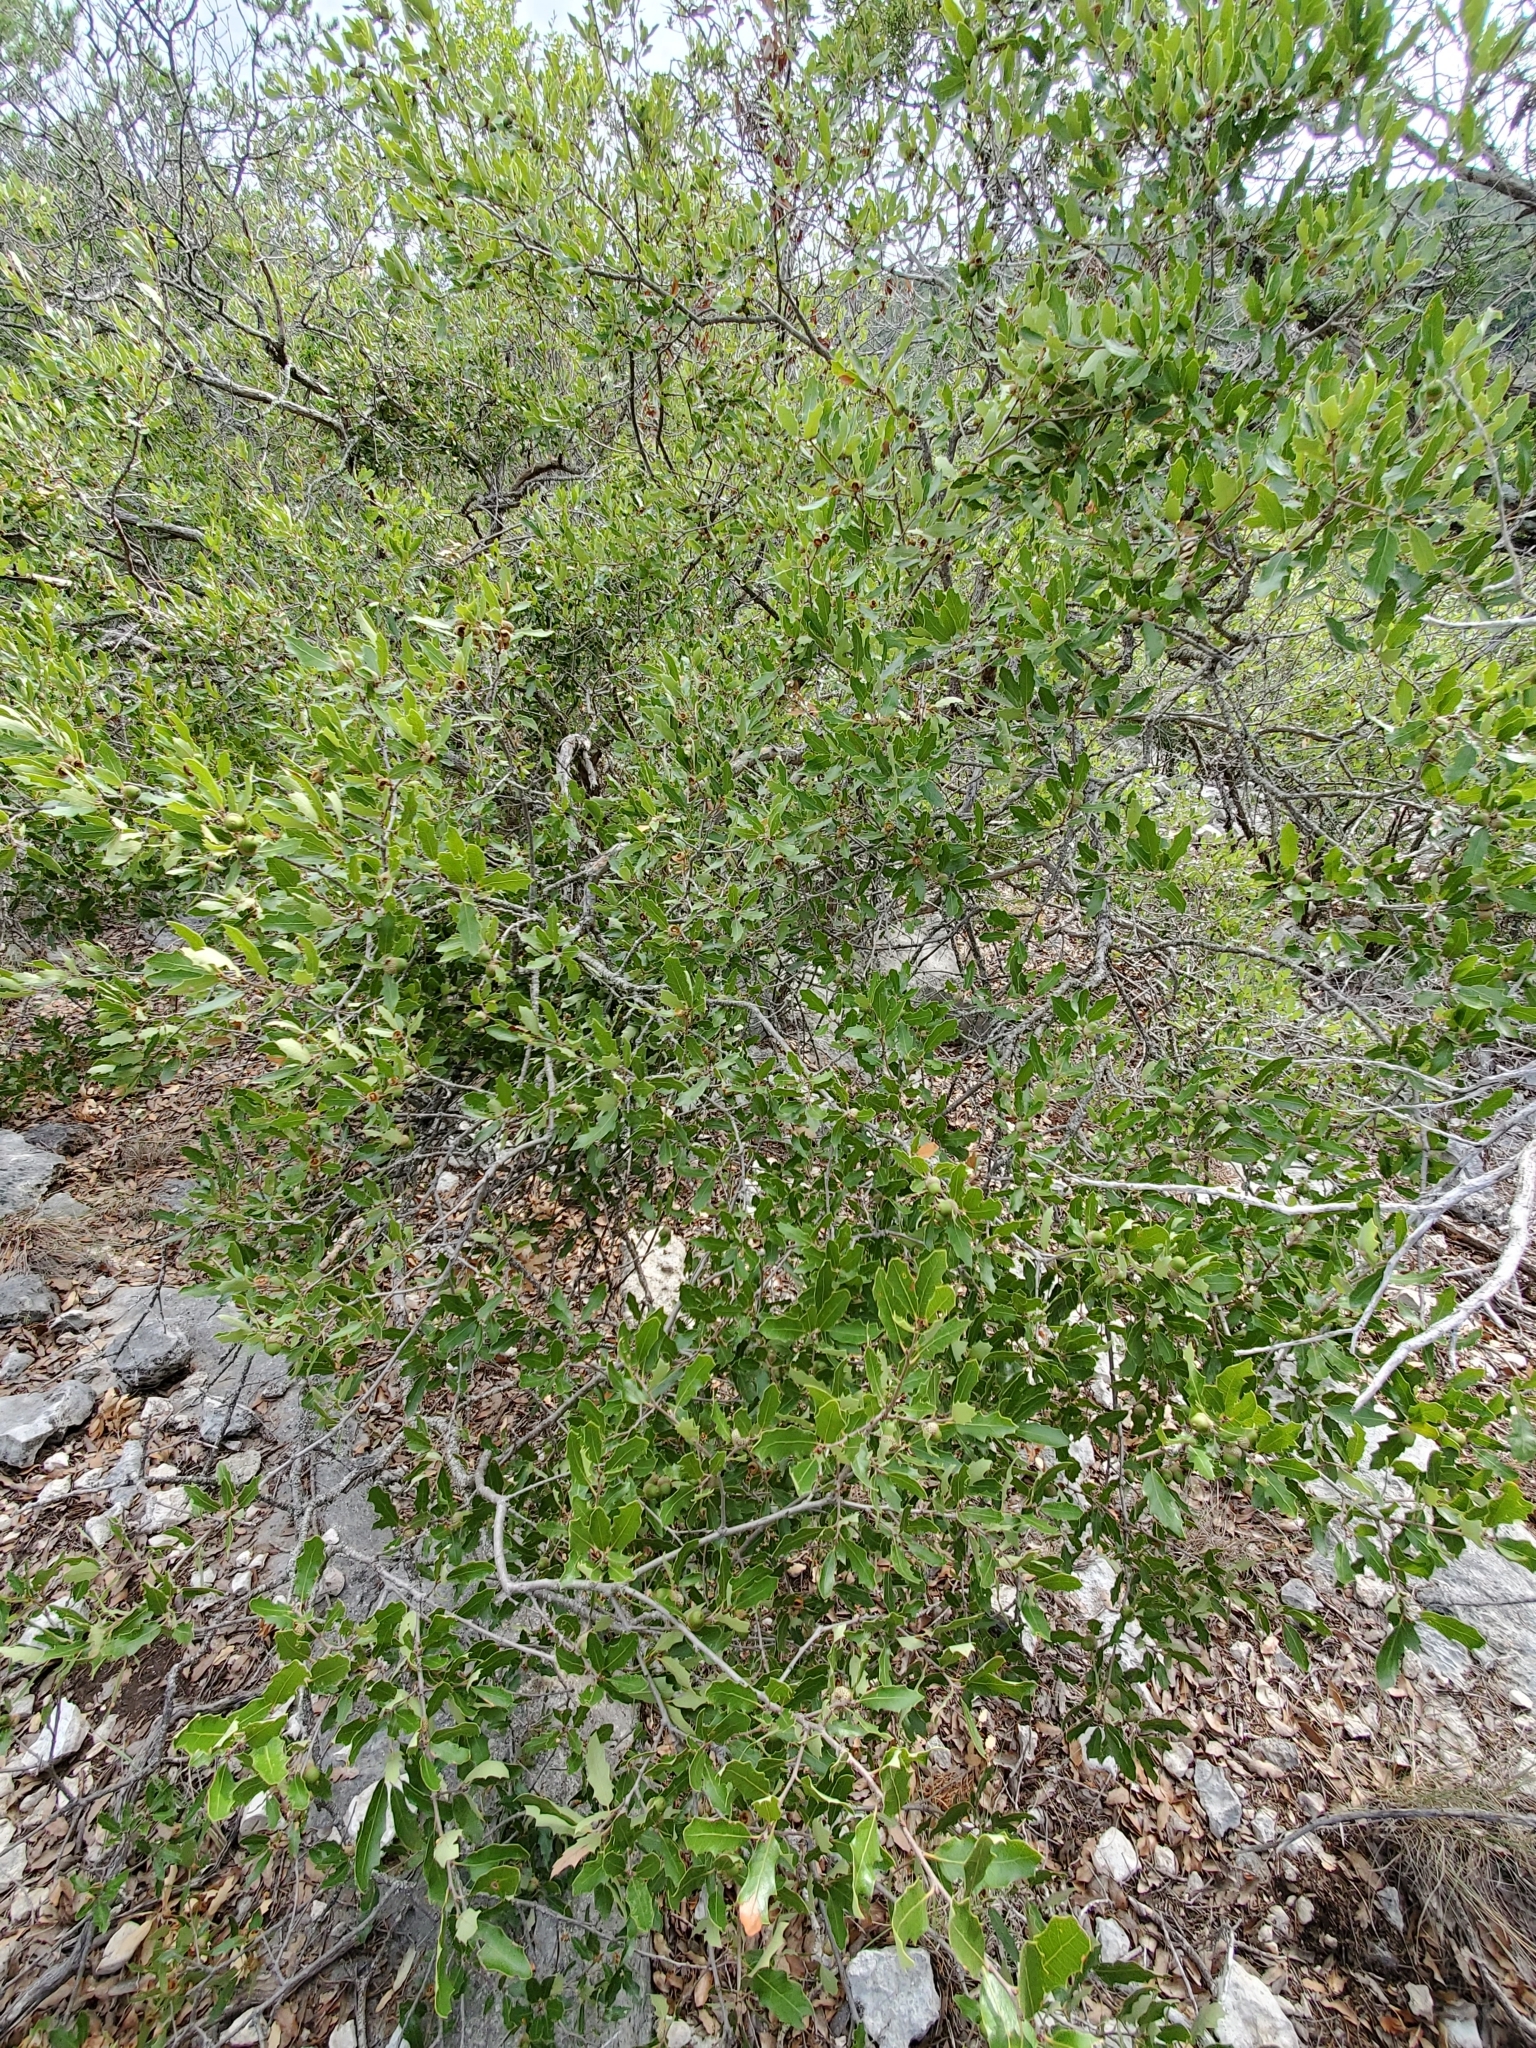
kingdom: Plantae
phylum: Tracheophyta
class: Magnoliopsida
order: Fagales
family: Fagaceae
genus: Quercus
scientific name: Quercus sinuata
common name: Durand oak
